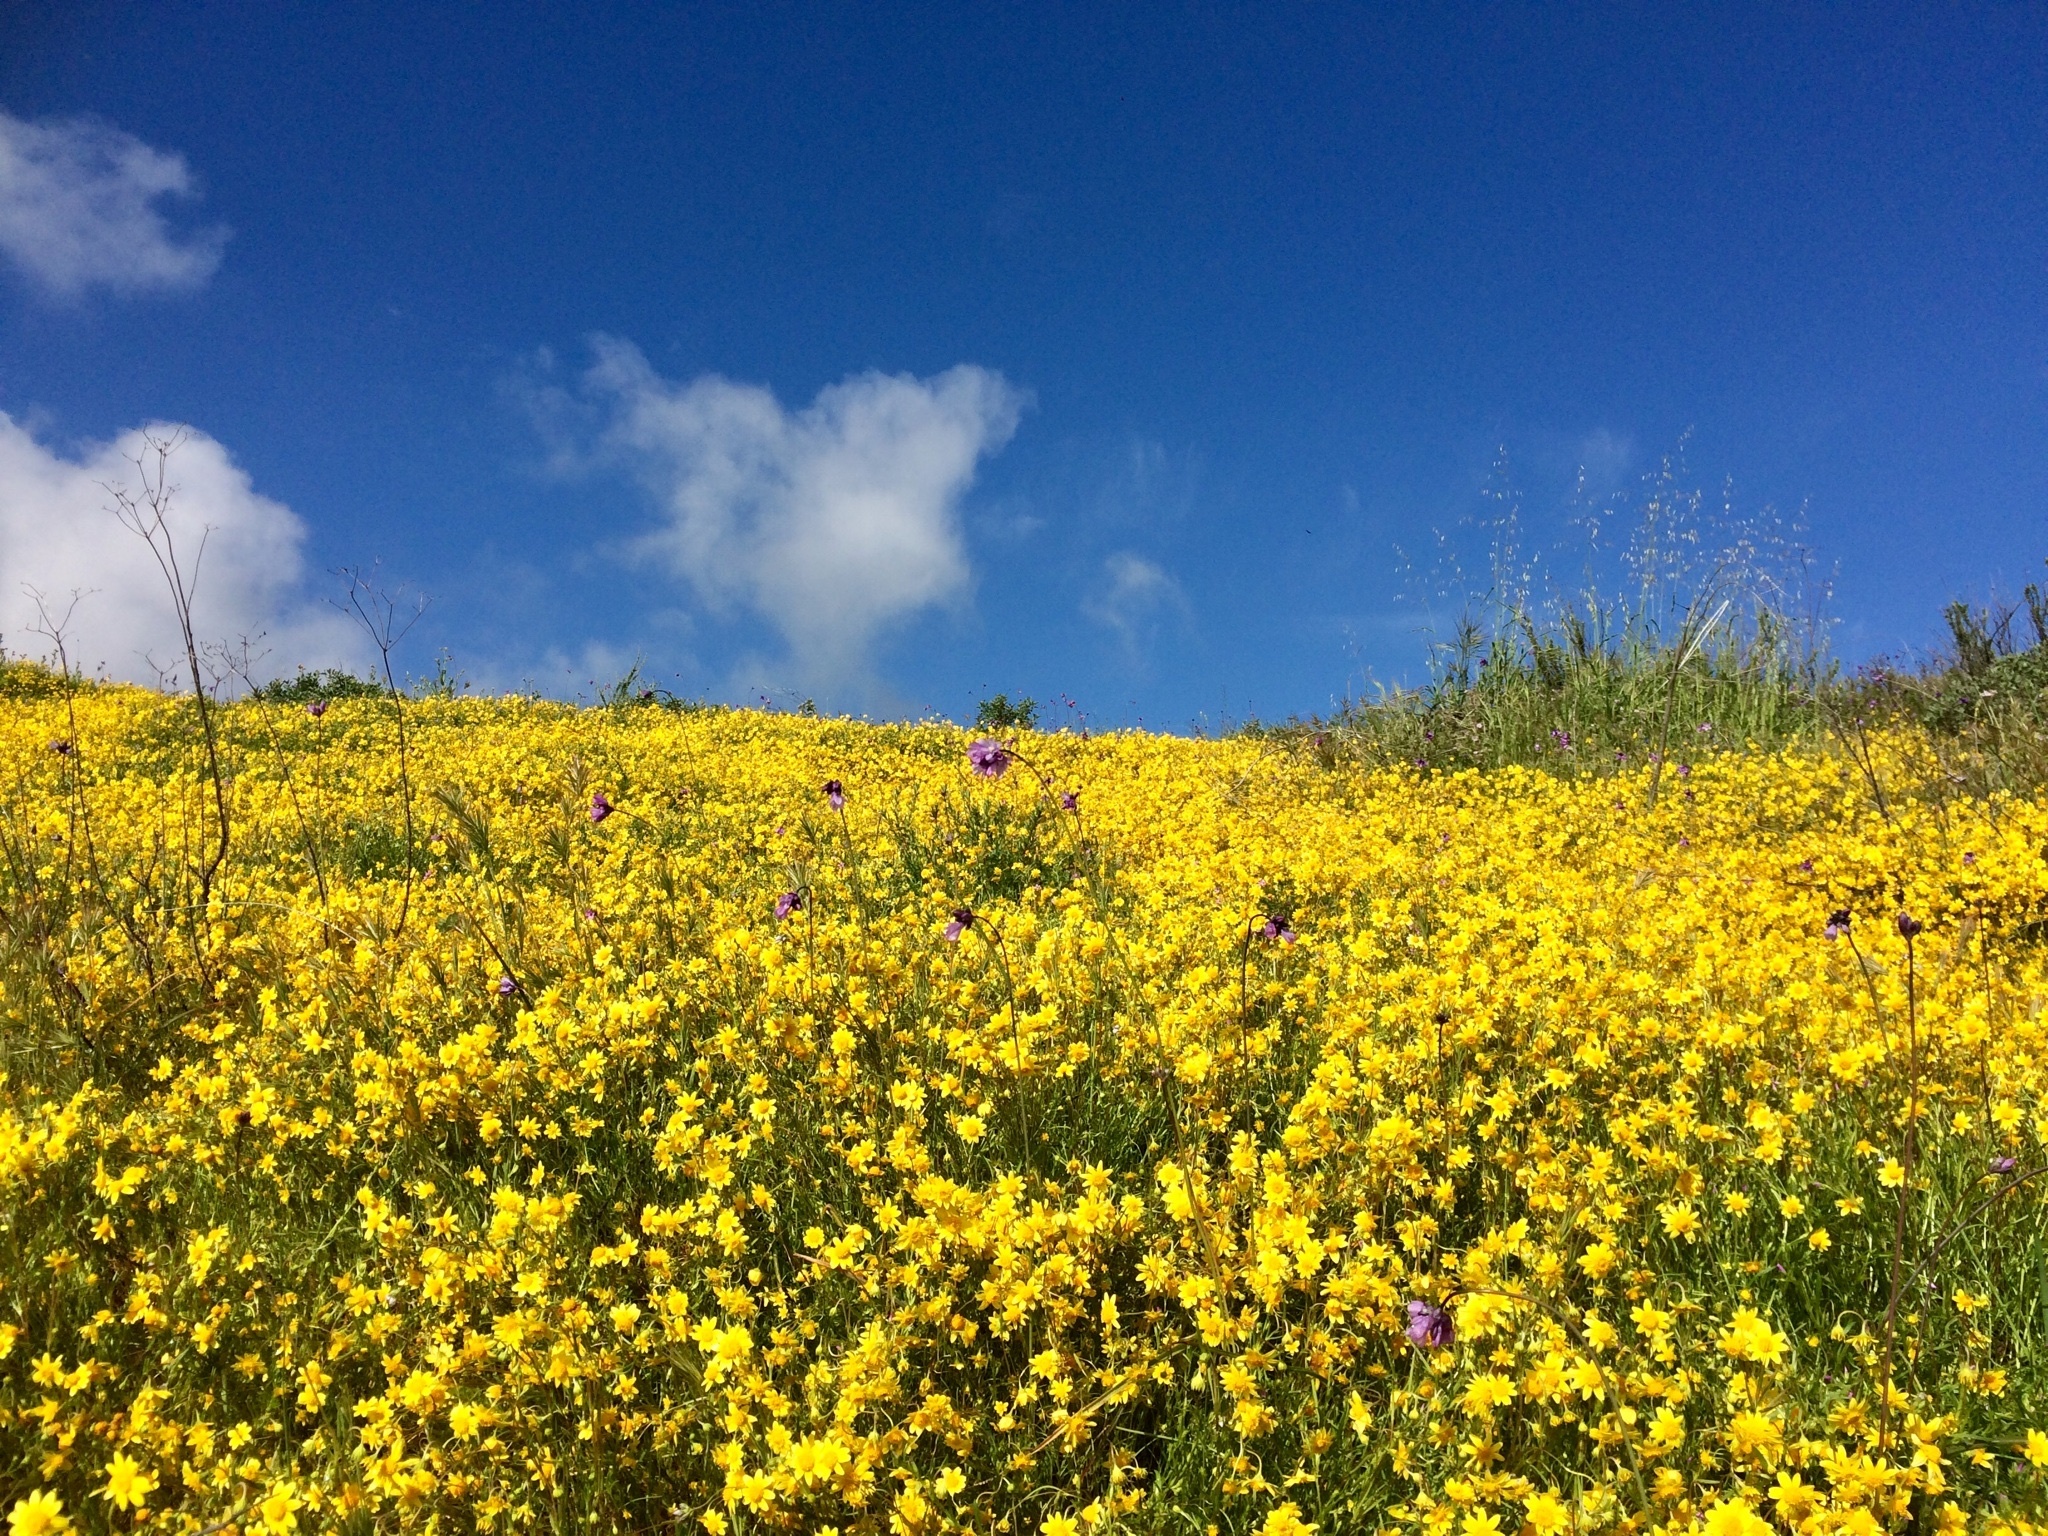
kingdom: Plantae
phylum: Tracheophyta
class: Magnoliopsida
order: Asterales
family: Asteraceae
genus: Lasthenia
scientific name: Lasthenia californica
